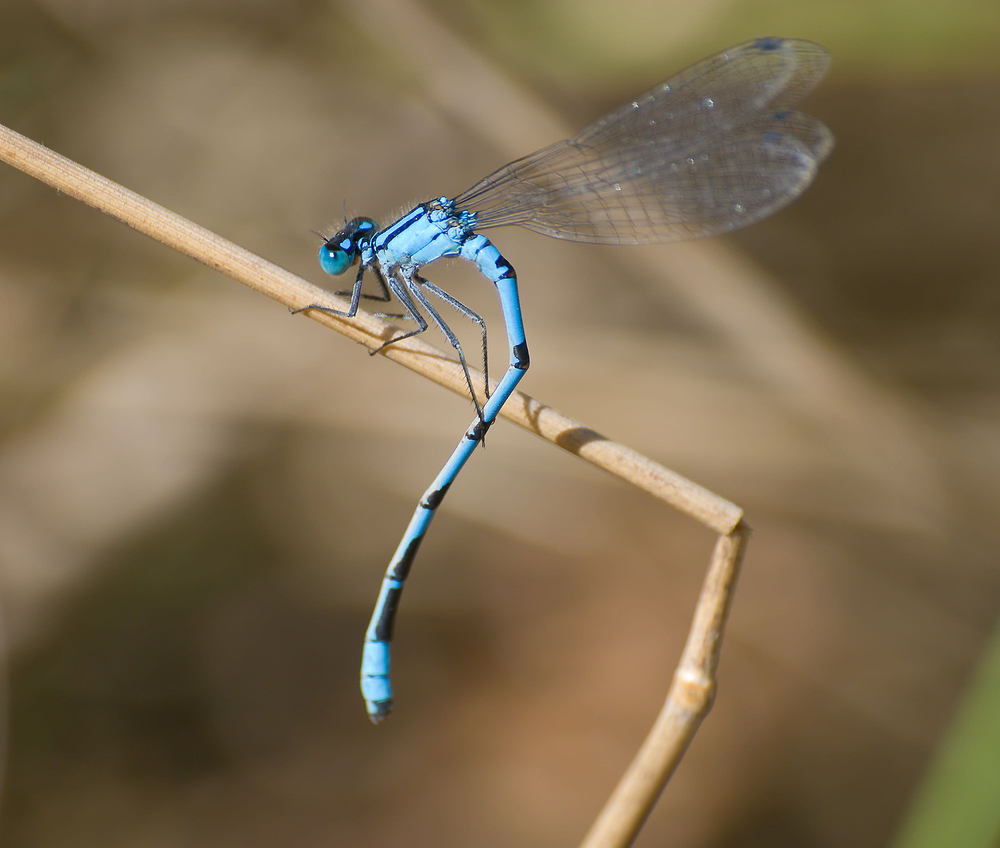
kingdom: Animalia
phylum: Arthropoda
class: Insecta
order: Odonata
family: Coenagrionidae
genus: Enallagma
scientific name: Enallagma cyathigerum
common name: Common blue damselfly
